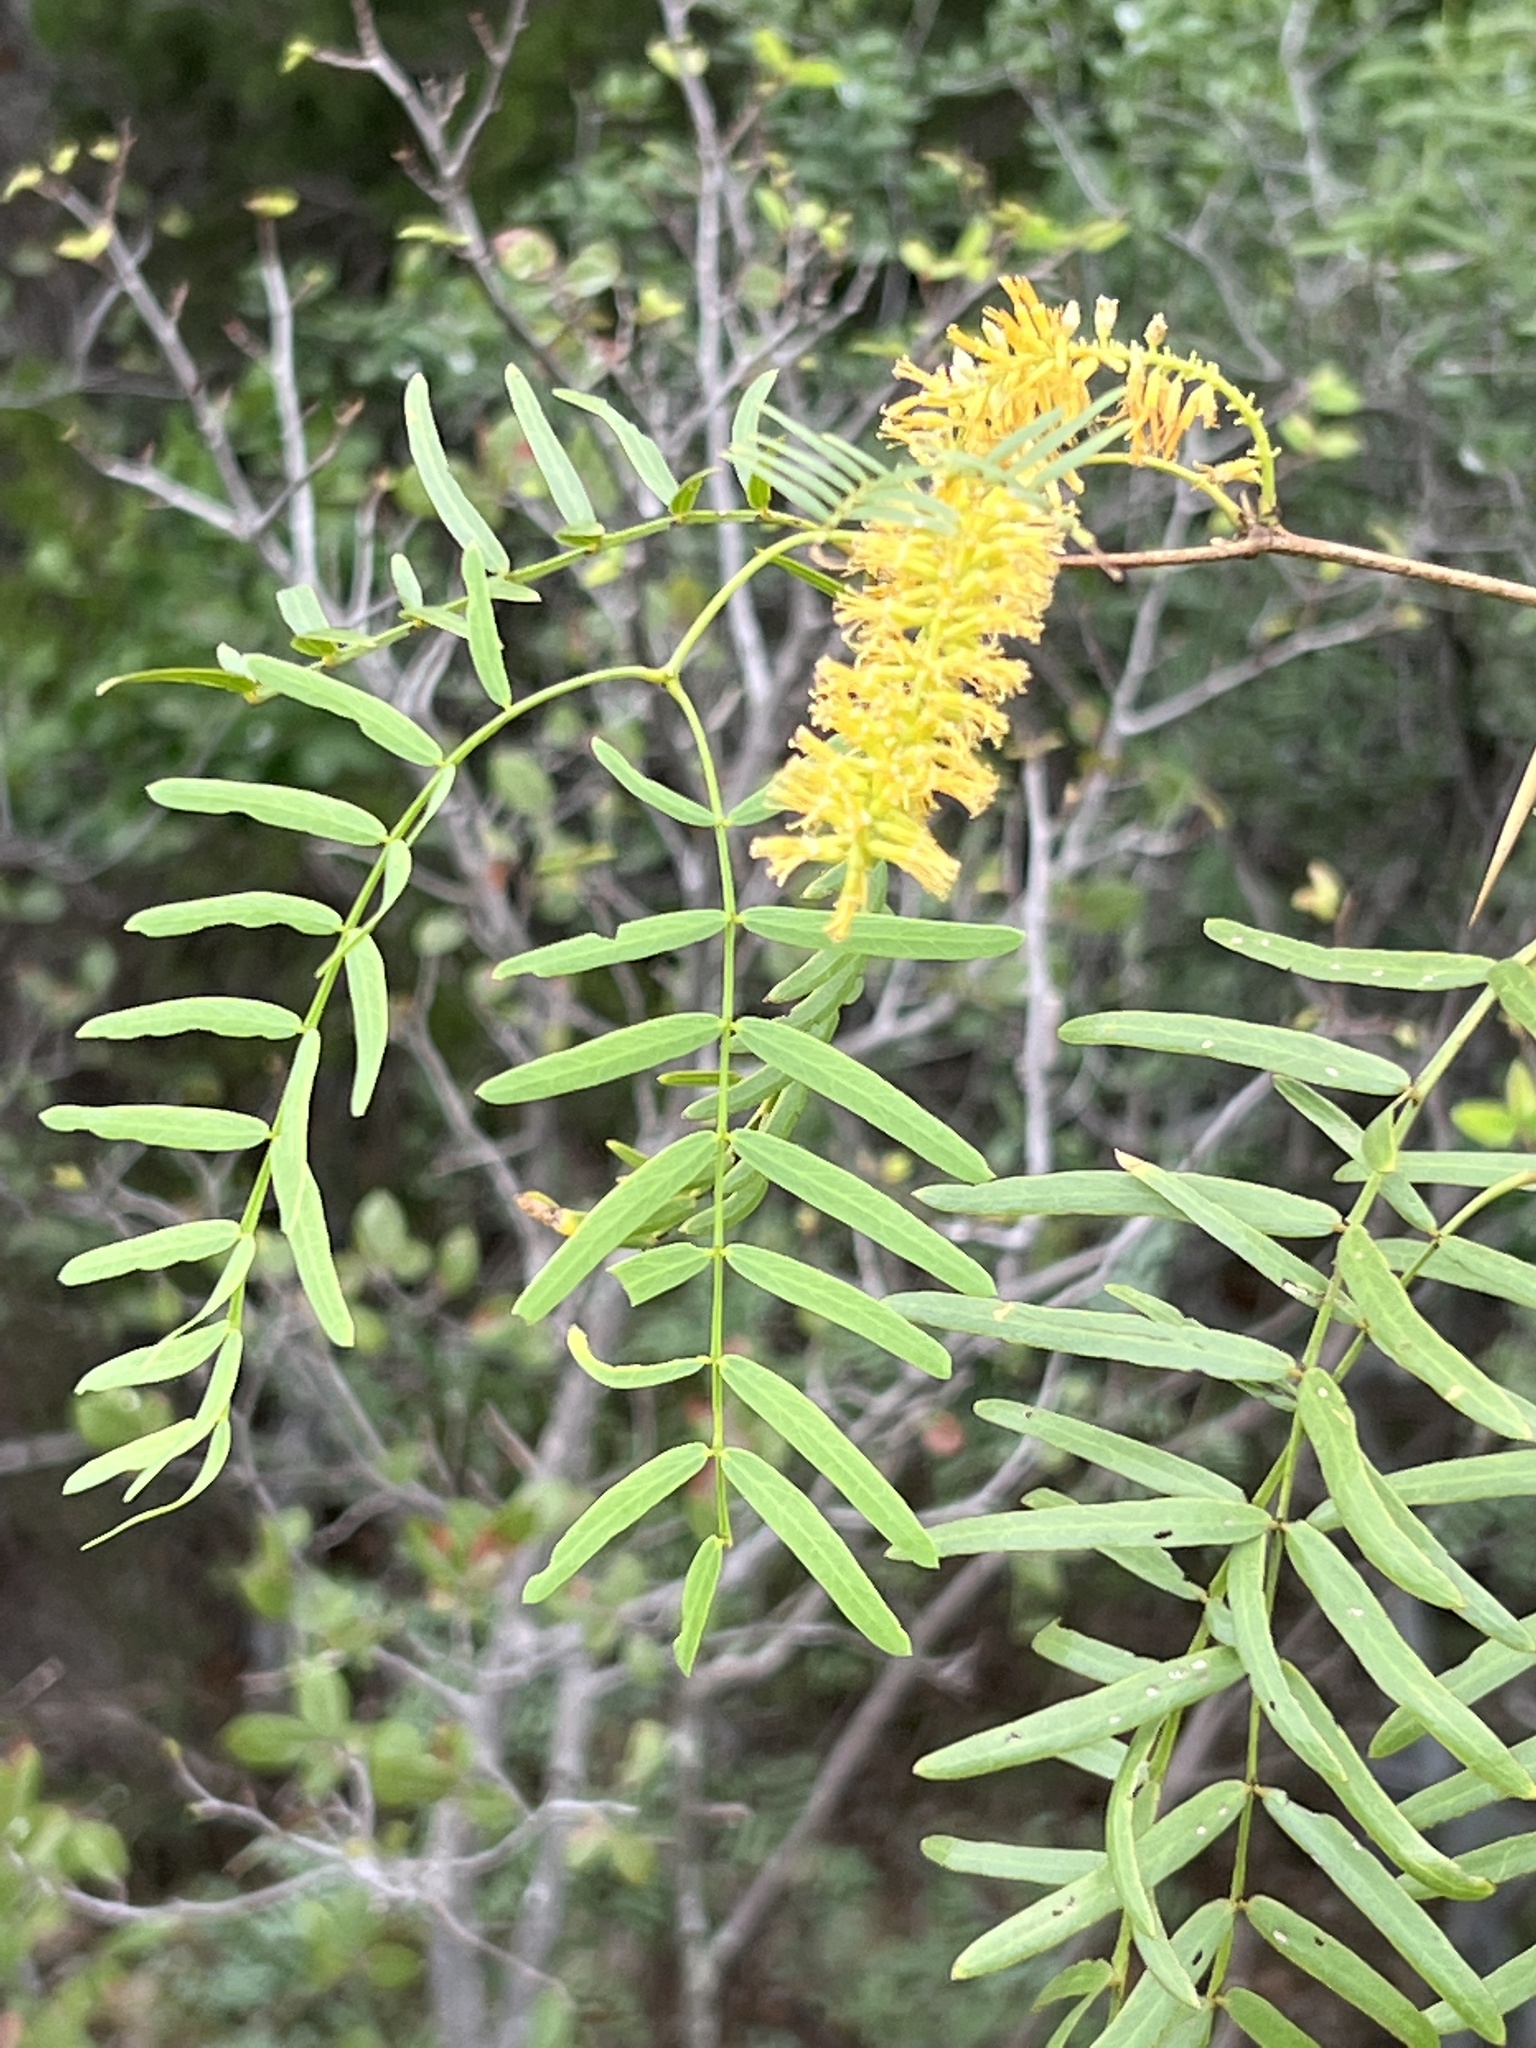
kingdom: Plantae
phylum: Tracheophyta
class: Magnoliopsida
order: Fabales
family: Fabaceae
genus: Prosopis
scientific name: Prosopis glandulosa
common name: Honey mesquite
